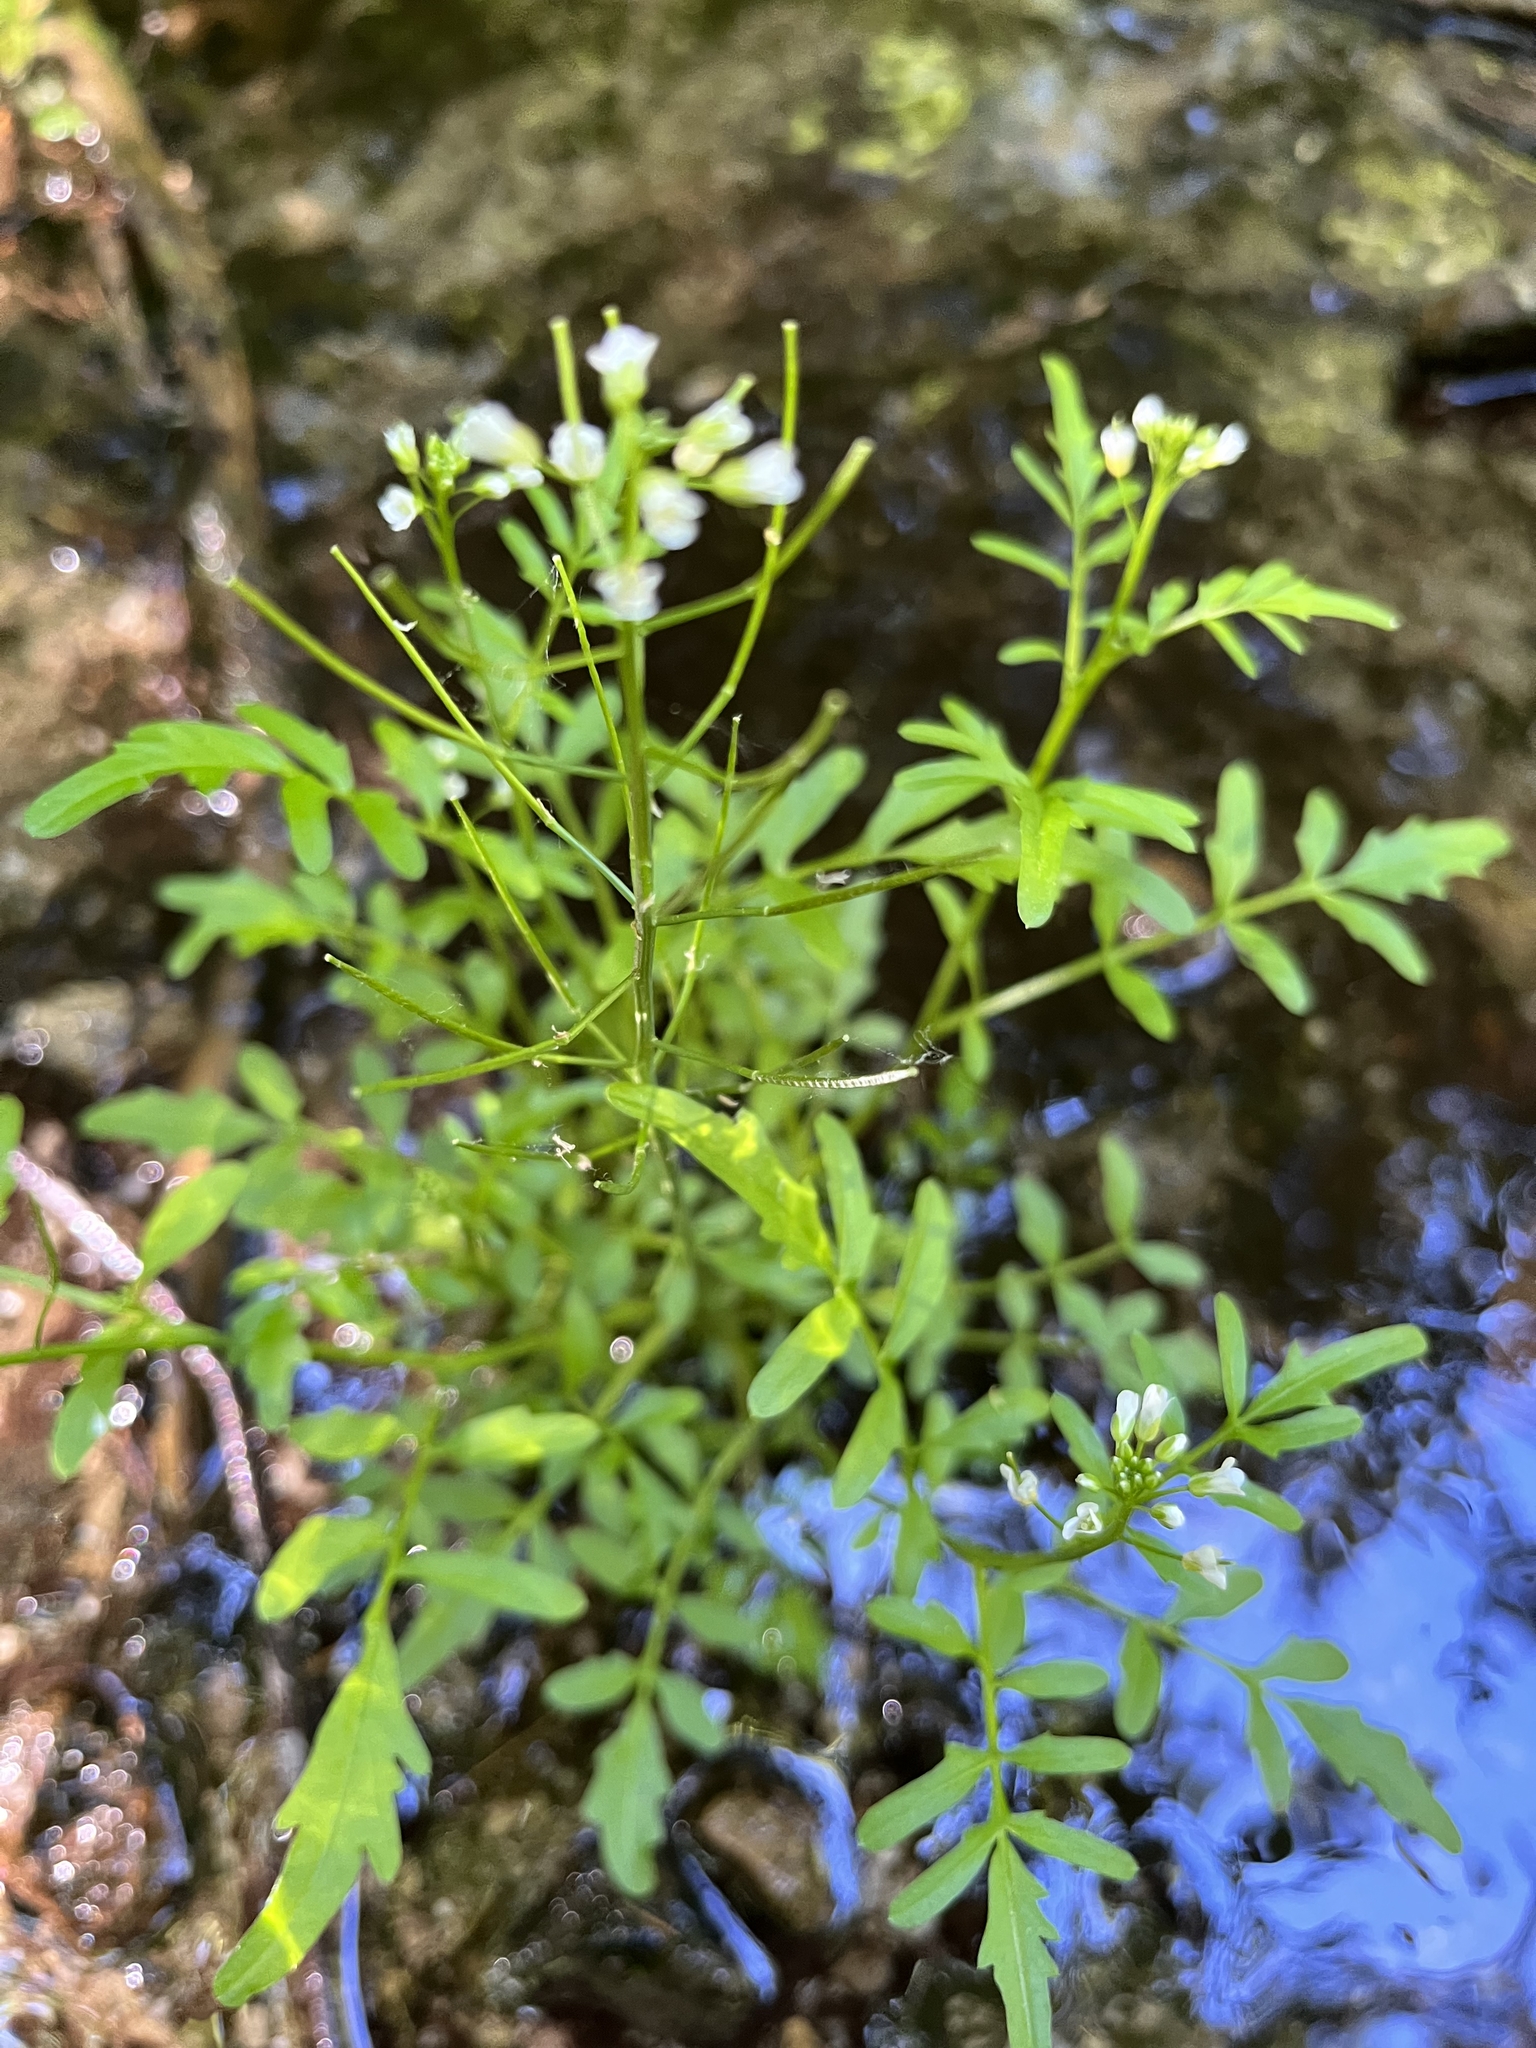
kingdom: Plantae
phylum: Tracheophyta
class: Magnoliopsida
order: Brassicales
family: Brassicaceae
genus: Cardamine
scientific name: Cardamine pensylvanica
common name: Pennsylvania bittercress
